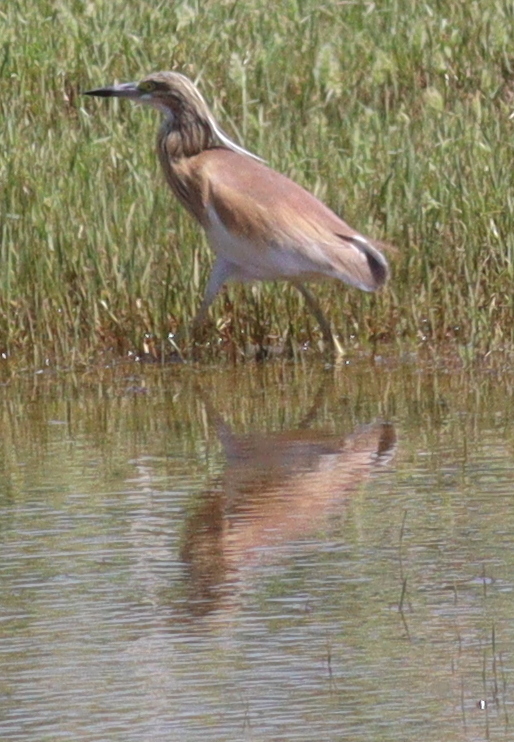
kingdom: Animalia
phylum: Chordata
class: Aves
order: Pelecaniformes
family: Ardeidae
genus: Ardeola
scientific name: Ardeola ralloides
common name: Squacco heron
